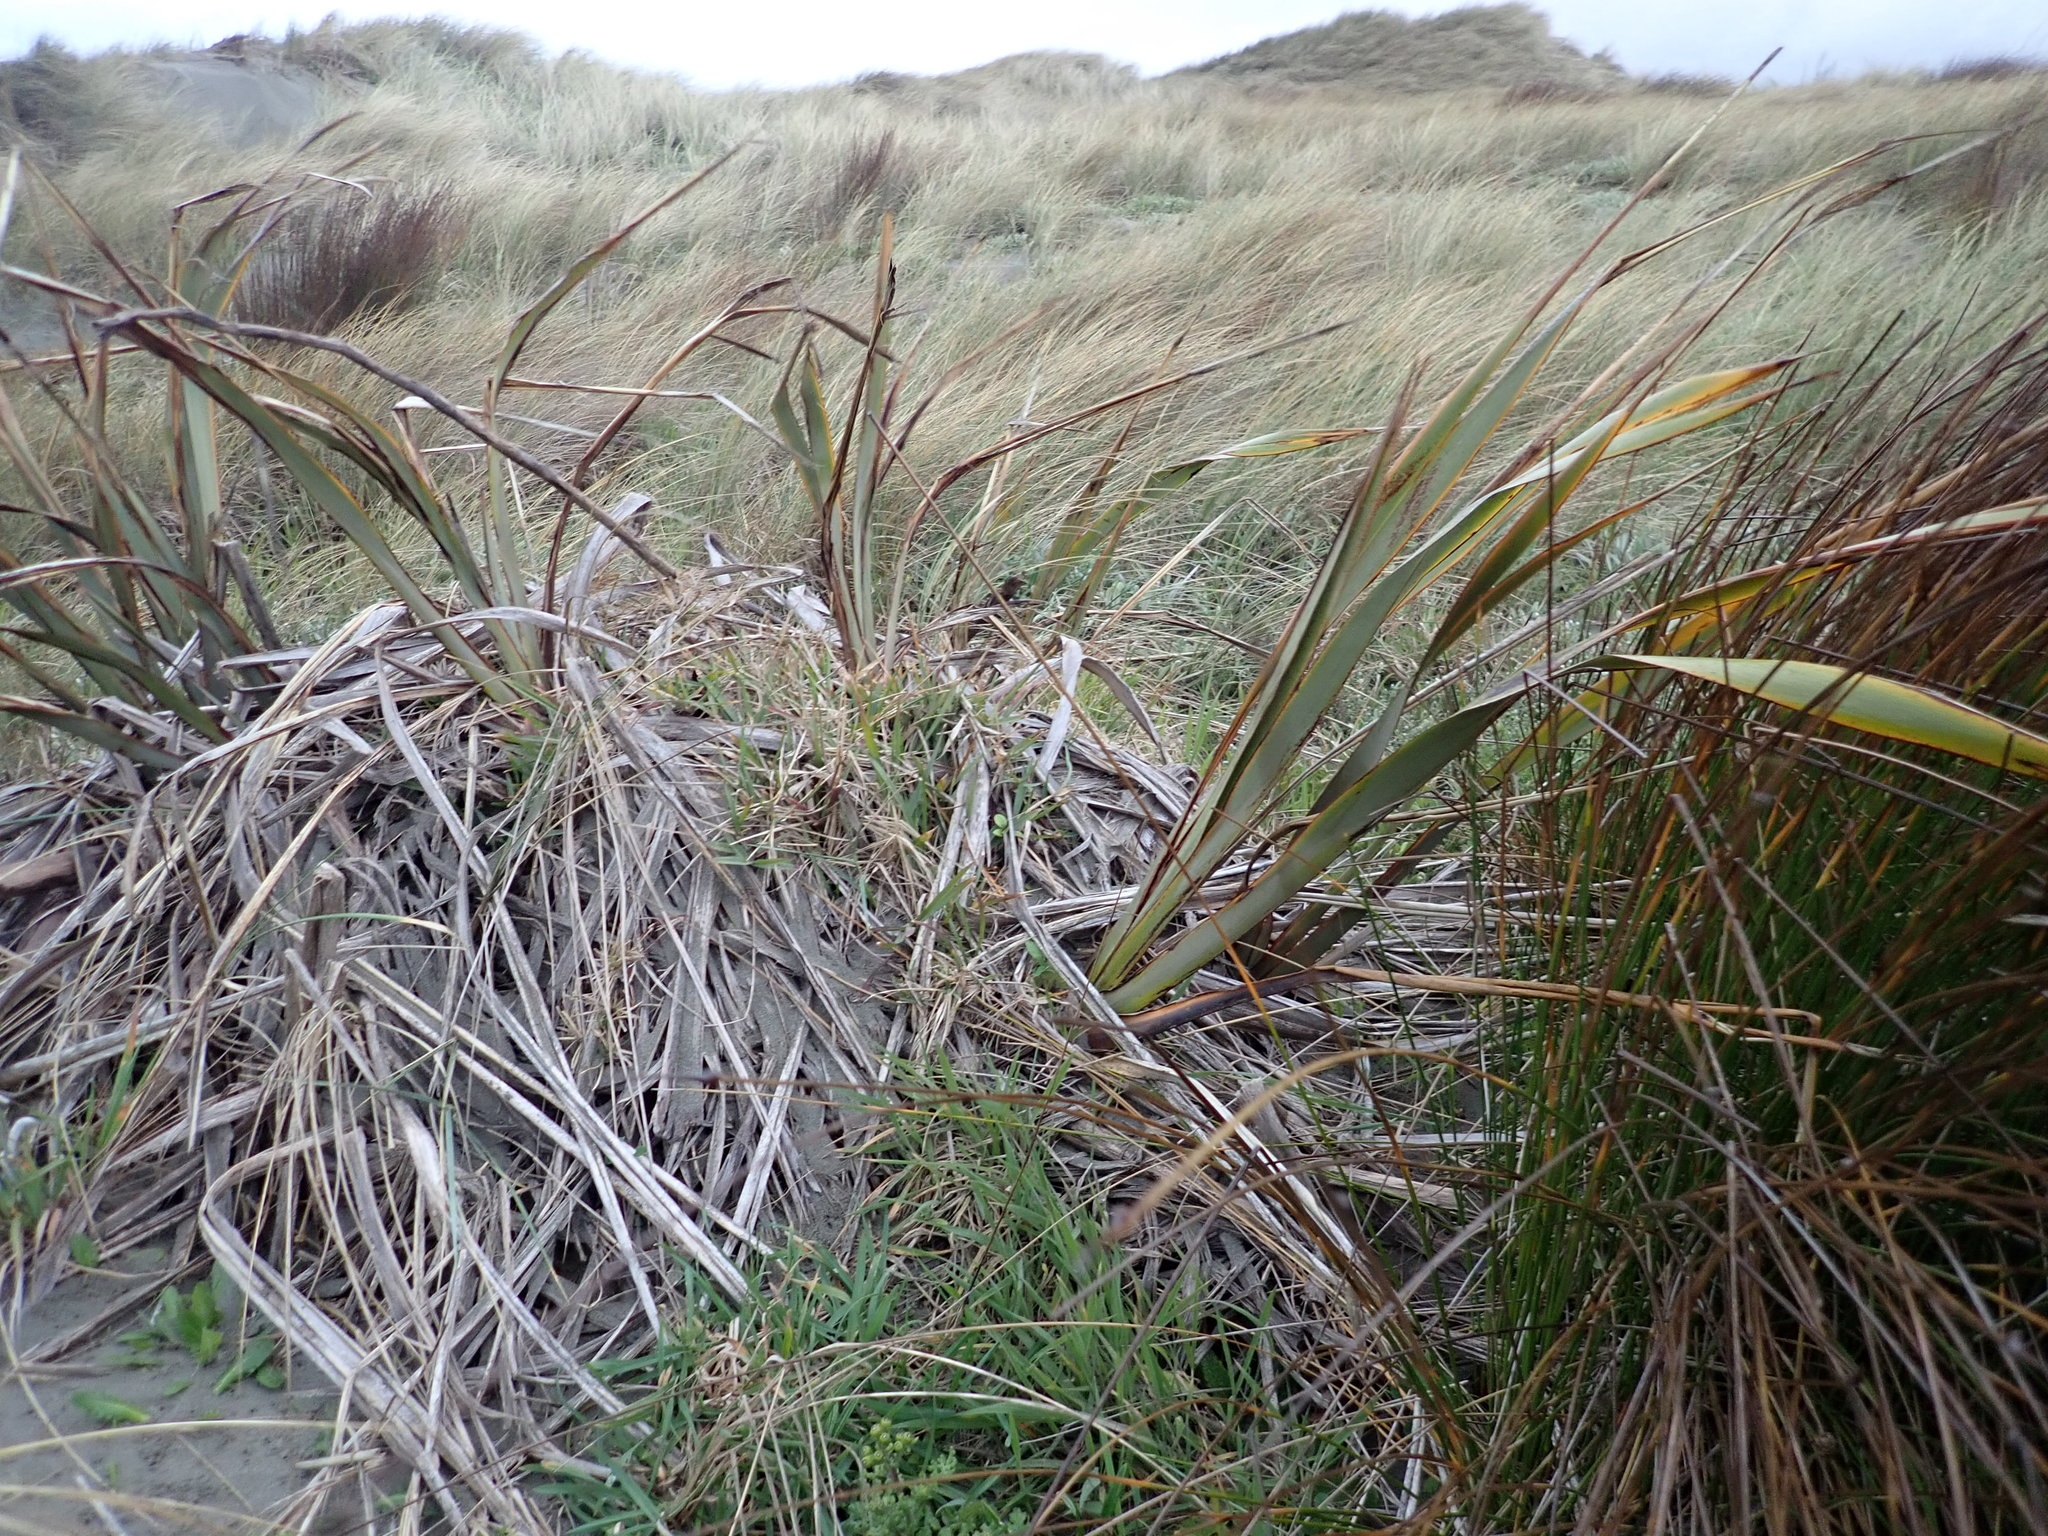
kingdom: Plantae
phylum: Tracheophyta
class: Liliopsida
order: Asparagales
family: Asphodelaceae
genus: Phormium
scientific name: Phormium tenax
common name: New zealand flax
